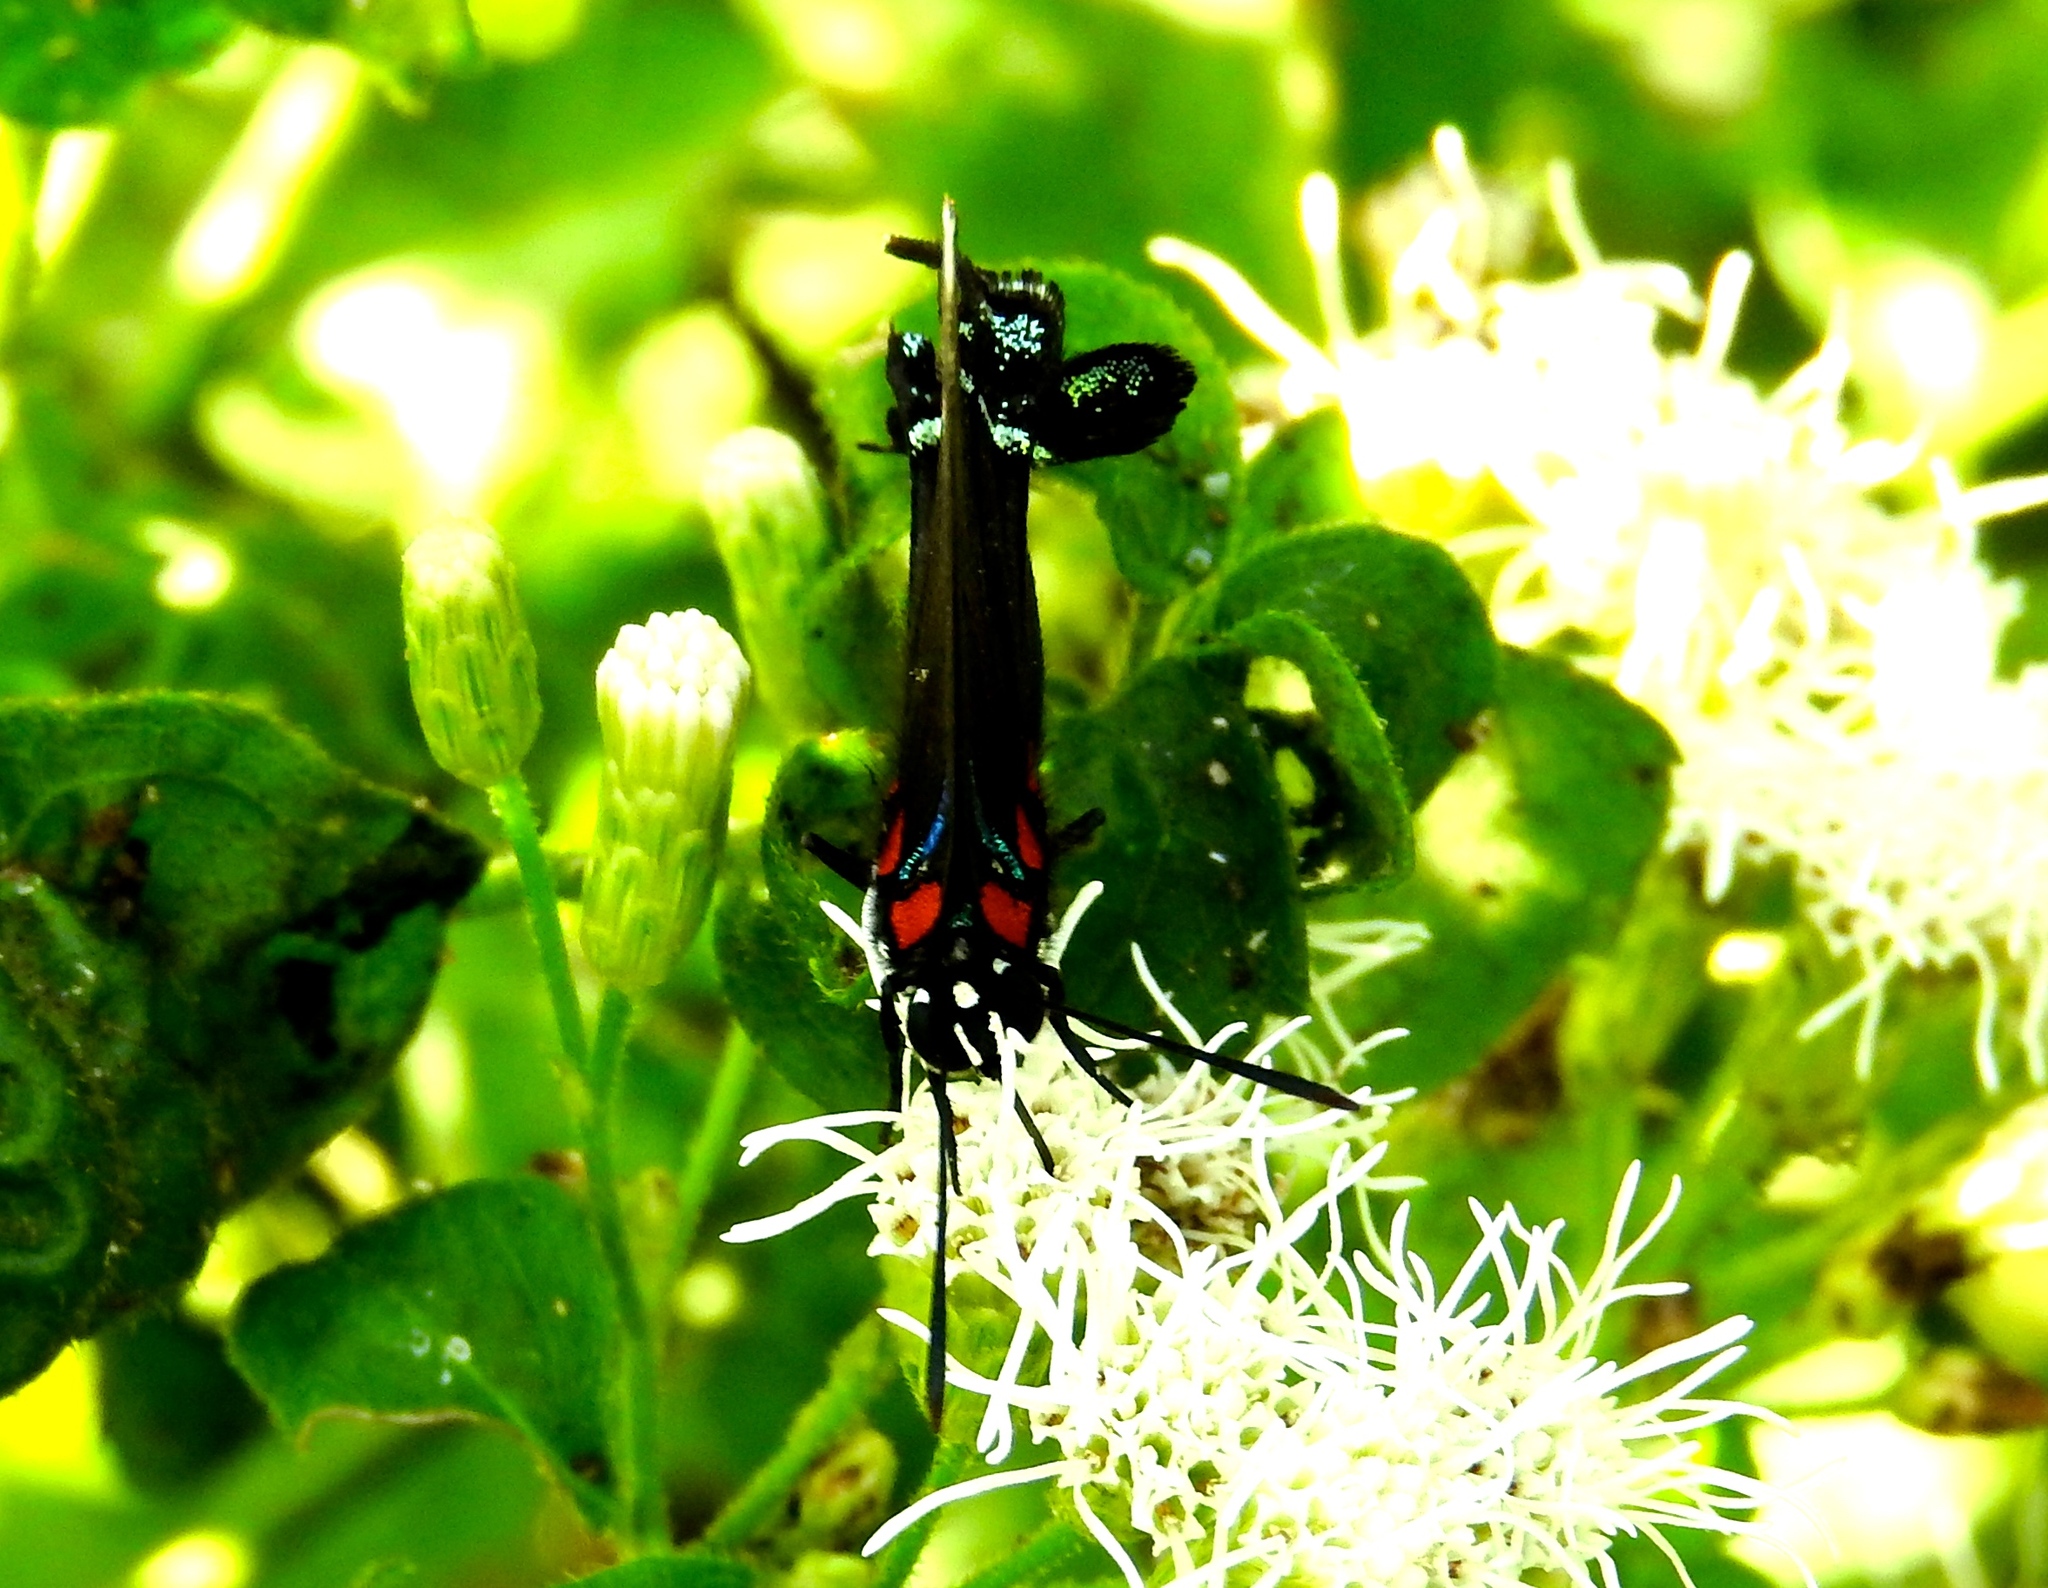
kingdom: Animalia
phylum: Arthropoda
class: Insecta
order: Lepidoptera
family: Lycaenidae
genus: Atlides
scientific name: Atlides
